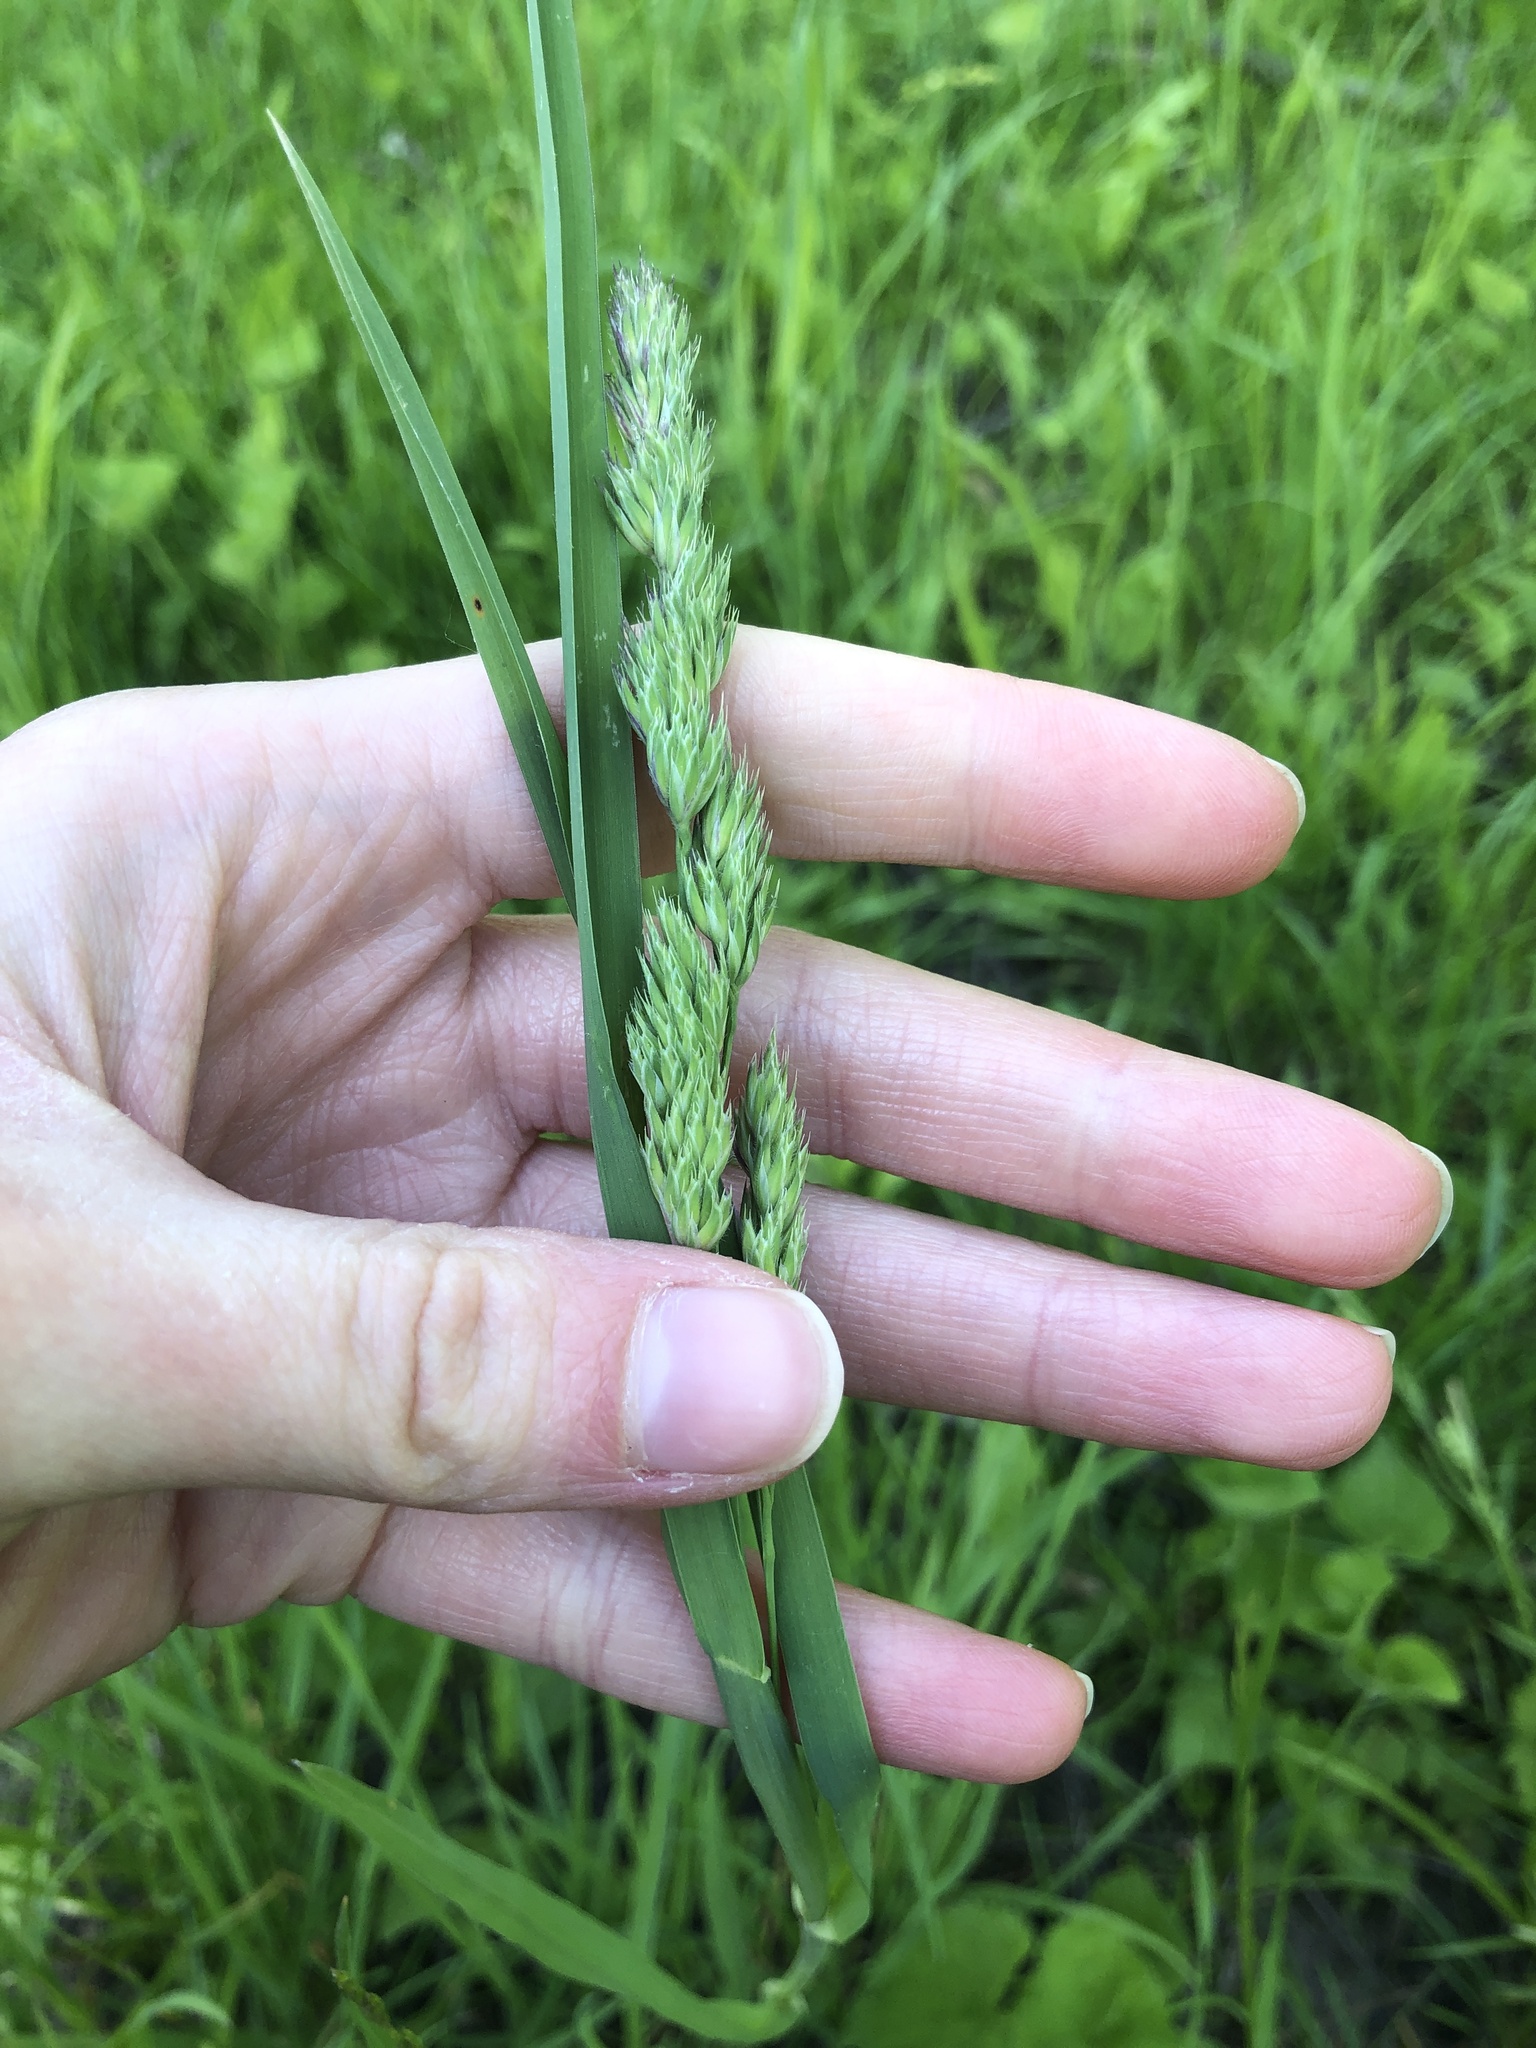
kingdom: Plantae
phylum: Tracheophyta
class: Liliopsida
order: Poales
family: Poaceae
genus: Dactylis
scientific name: Dactylis glomerata
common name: Orchardgrass
